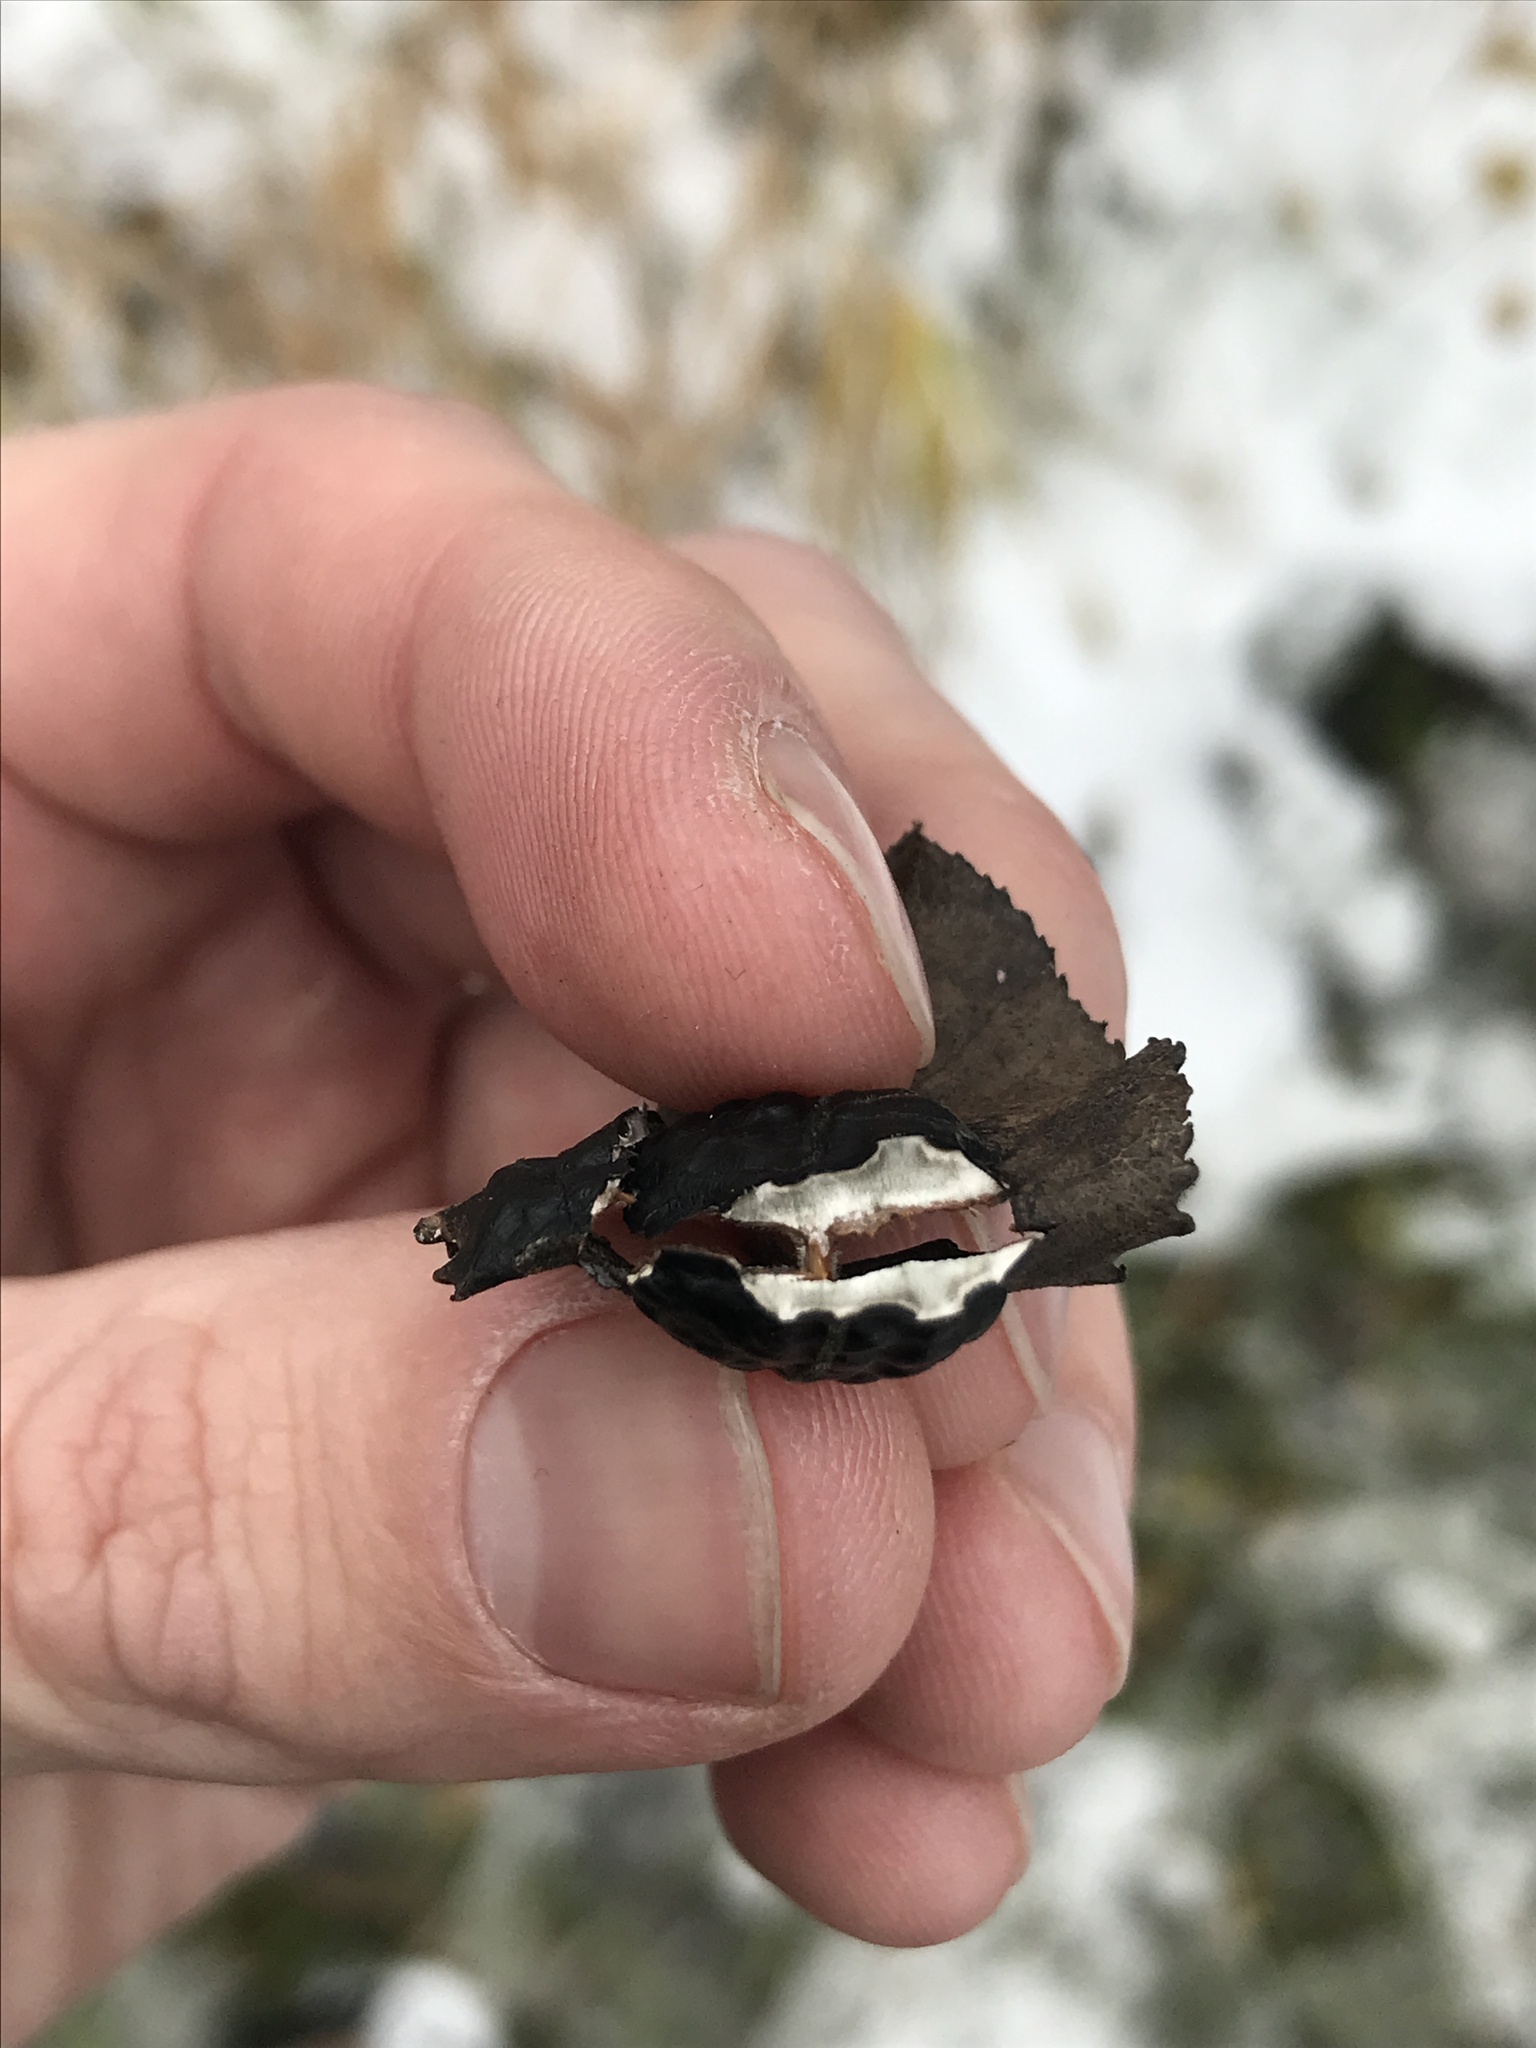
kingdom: Fungi
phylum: Ascomycota
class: Leotiomycetes
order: Rhytismatales
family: Rhytismataceae
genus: Rhytisma
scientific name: Rhytisma salicinum
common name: Willow tarspot
